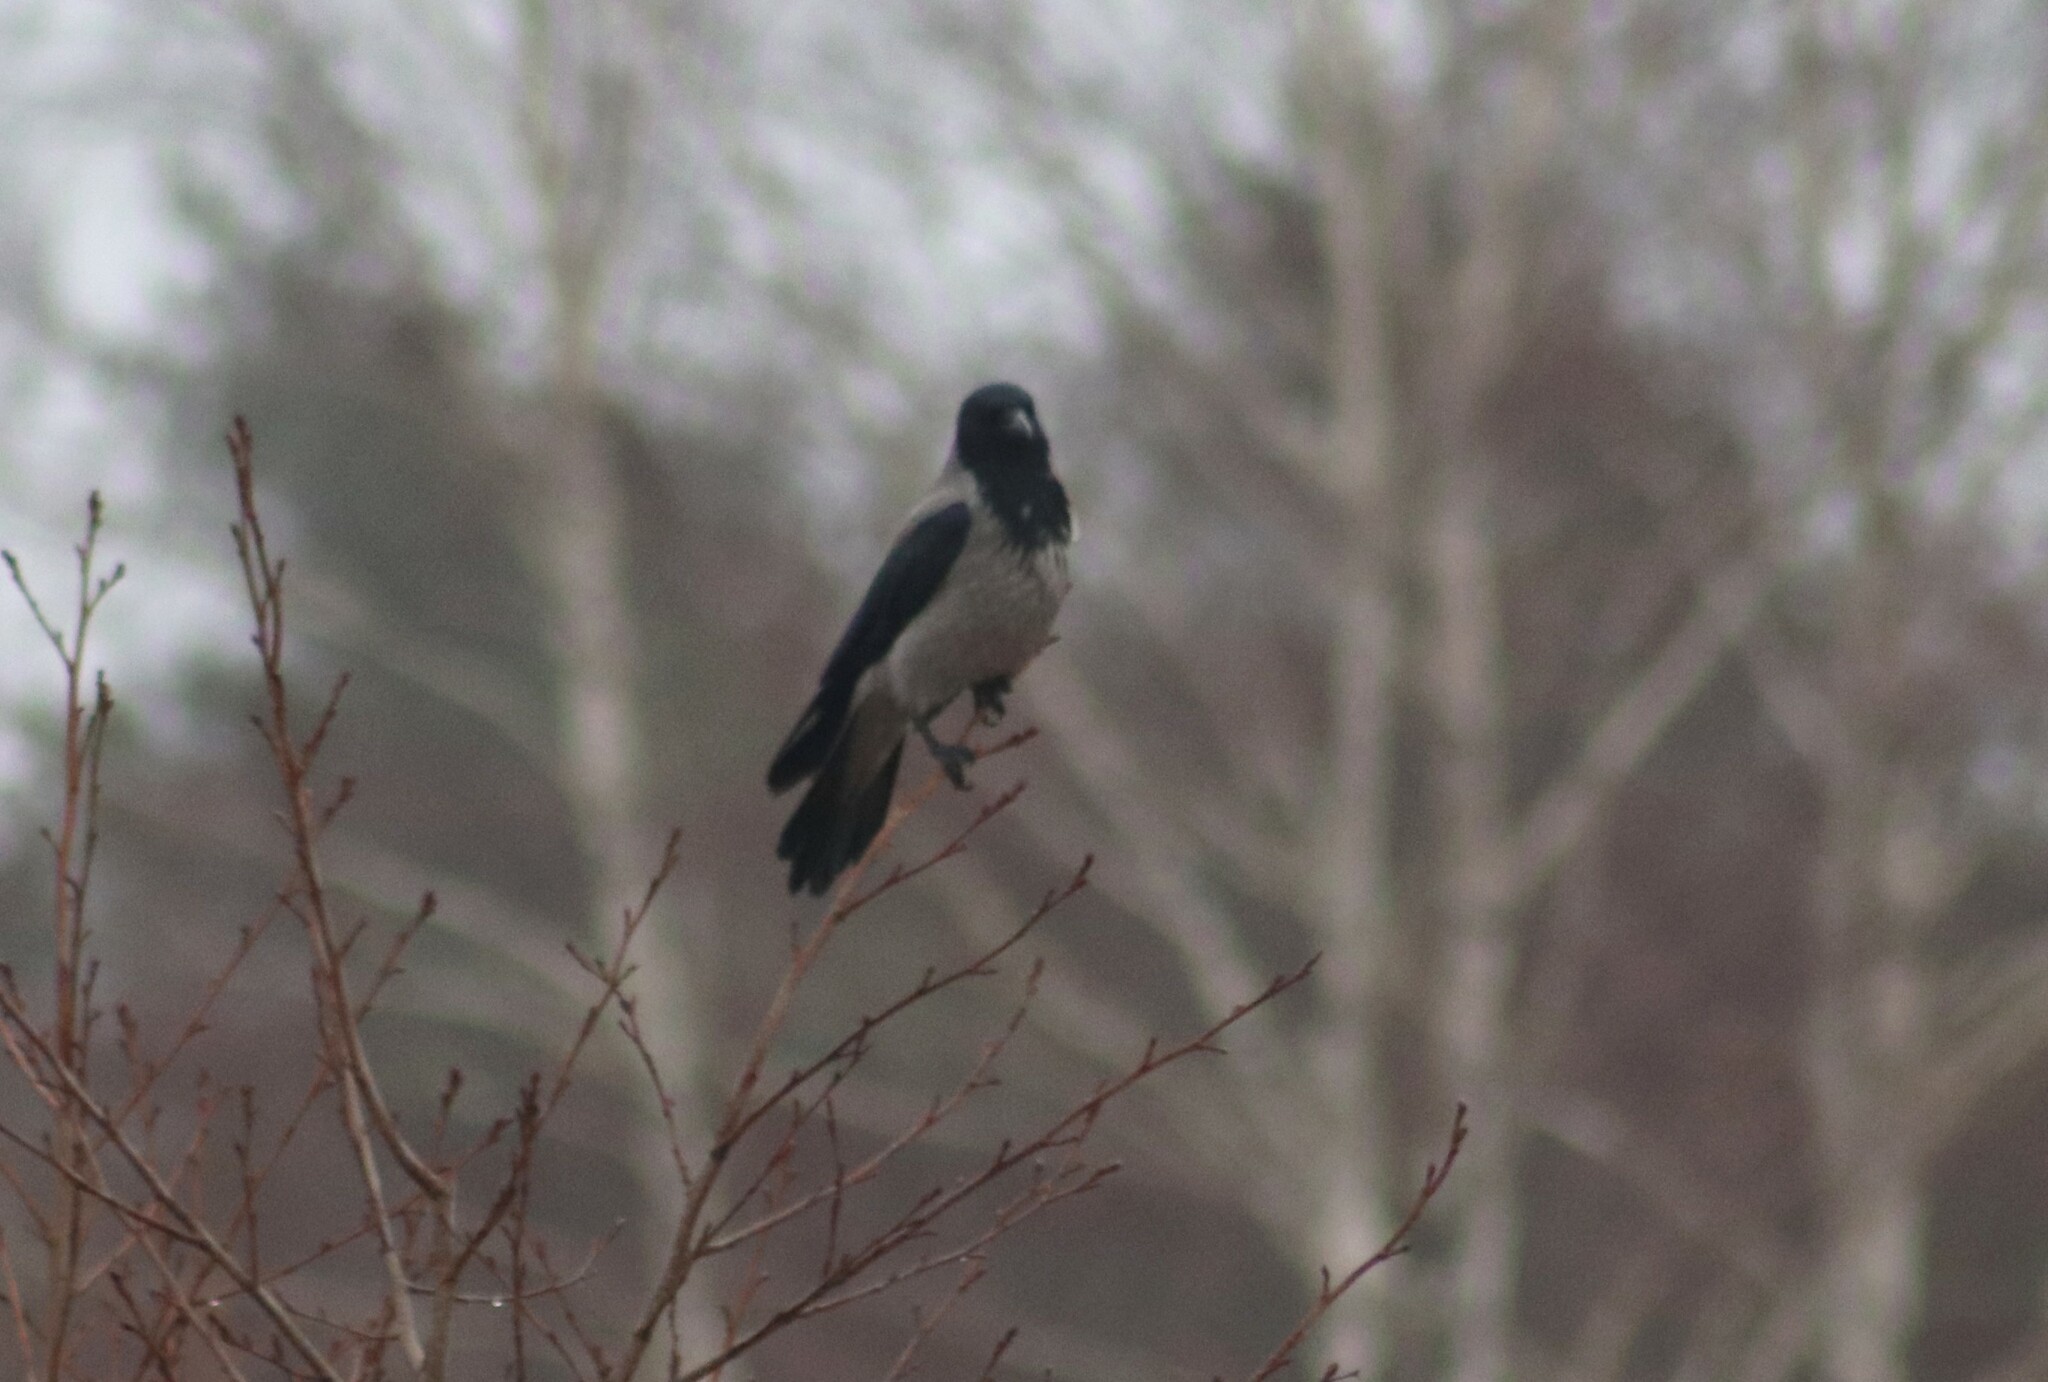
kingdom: Animalia
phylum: Chordata
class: Aves
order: Passeriformes
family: Corvidae
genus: Corvus
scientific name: Corvus cornix
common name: Hooded crow
